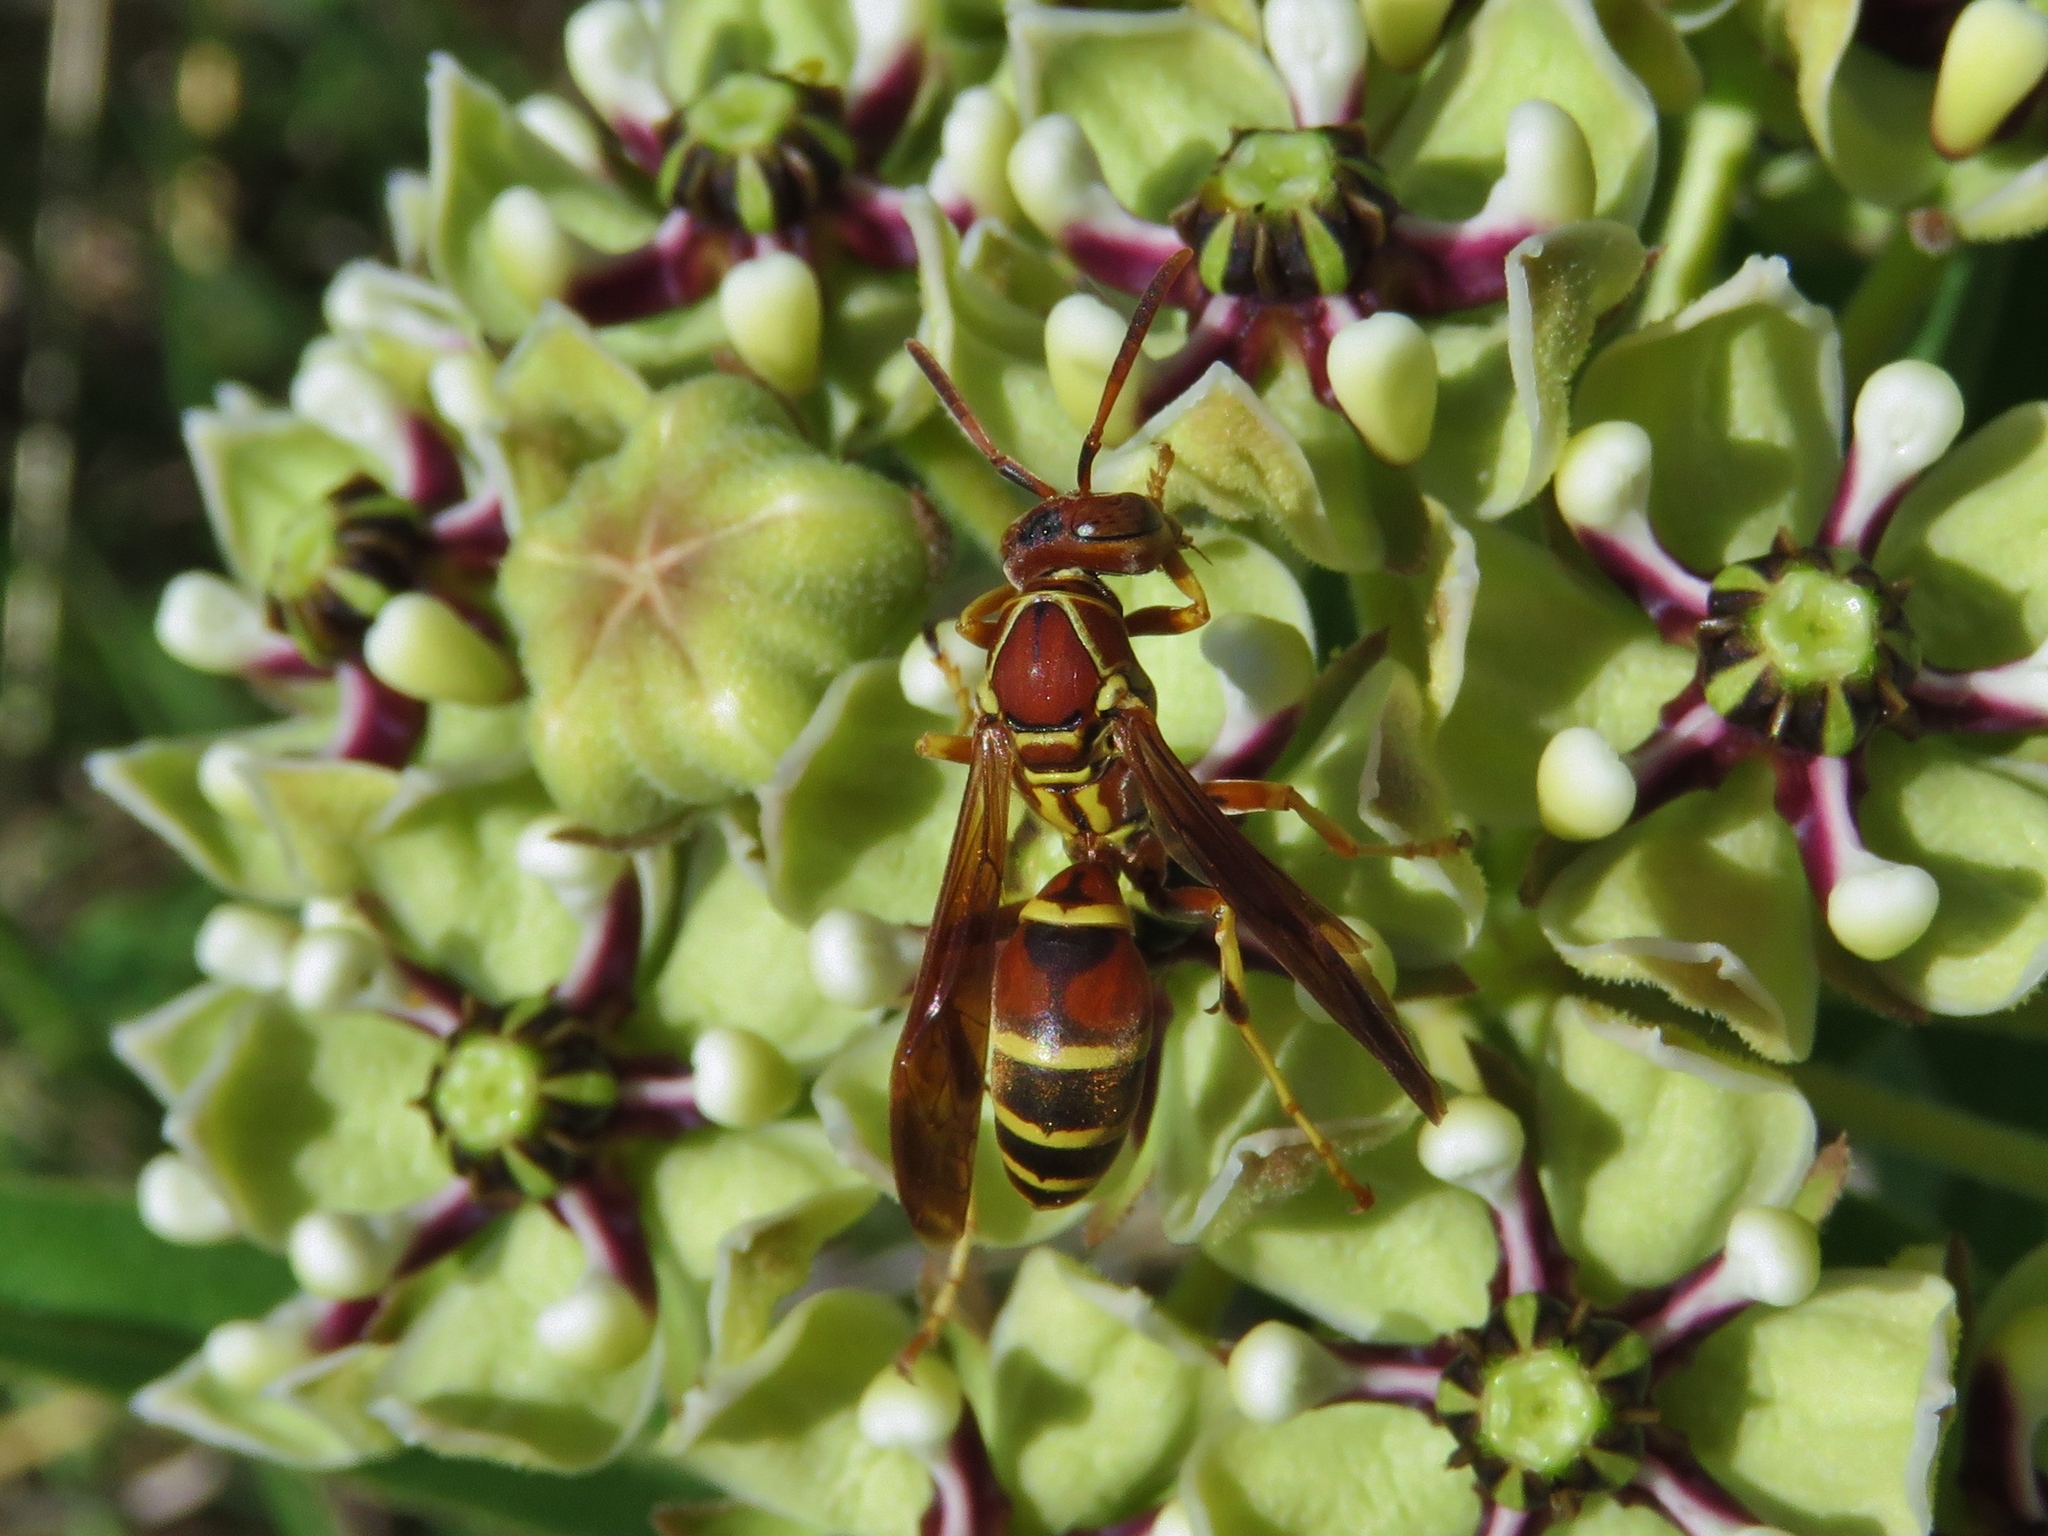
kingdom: Animalia
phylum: Arthropoda
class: Insecta
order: Hymenoptera
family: Eumenidae
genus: Polistes
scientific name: Polistes dorsalis
